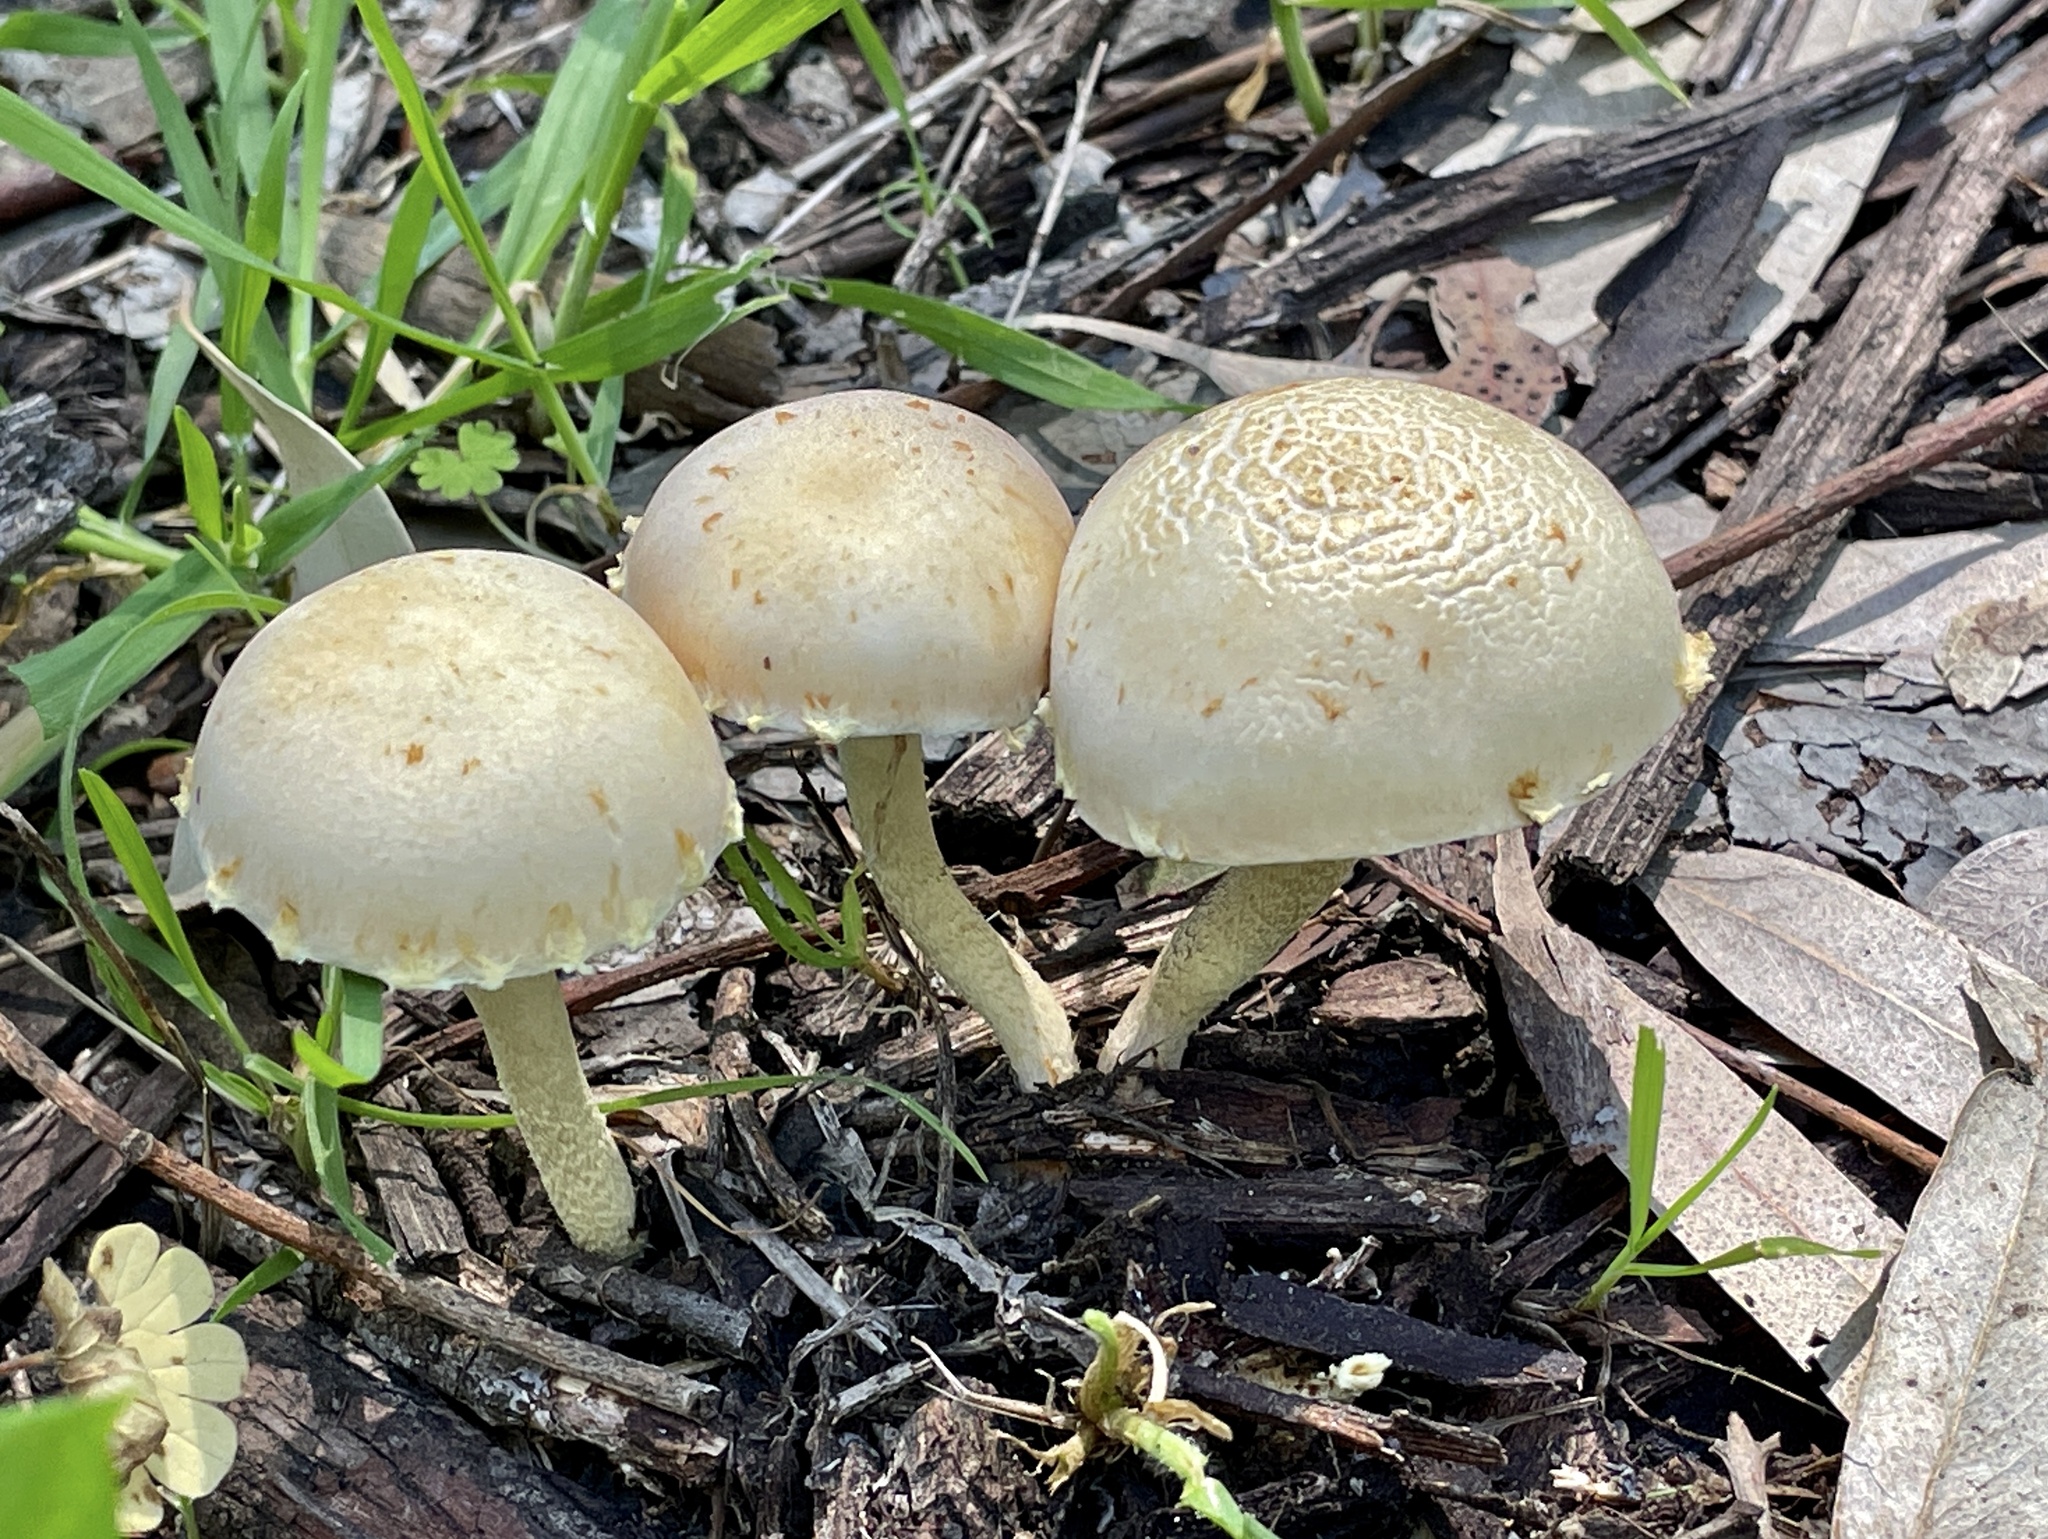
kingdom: Fungi
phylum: Basidiomycota
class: Agaricomycetes
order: Agaricales
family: Strophariaceae
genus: Leratiomyces
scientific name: Leratiomyces percevalii
